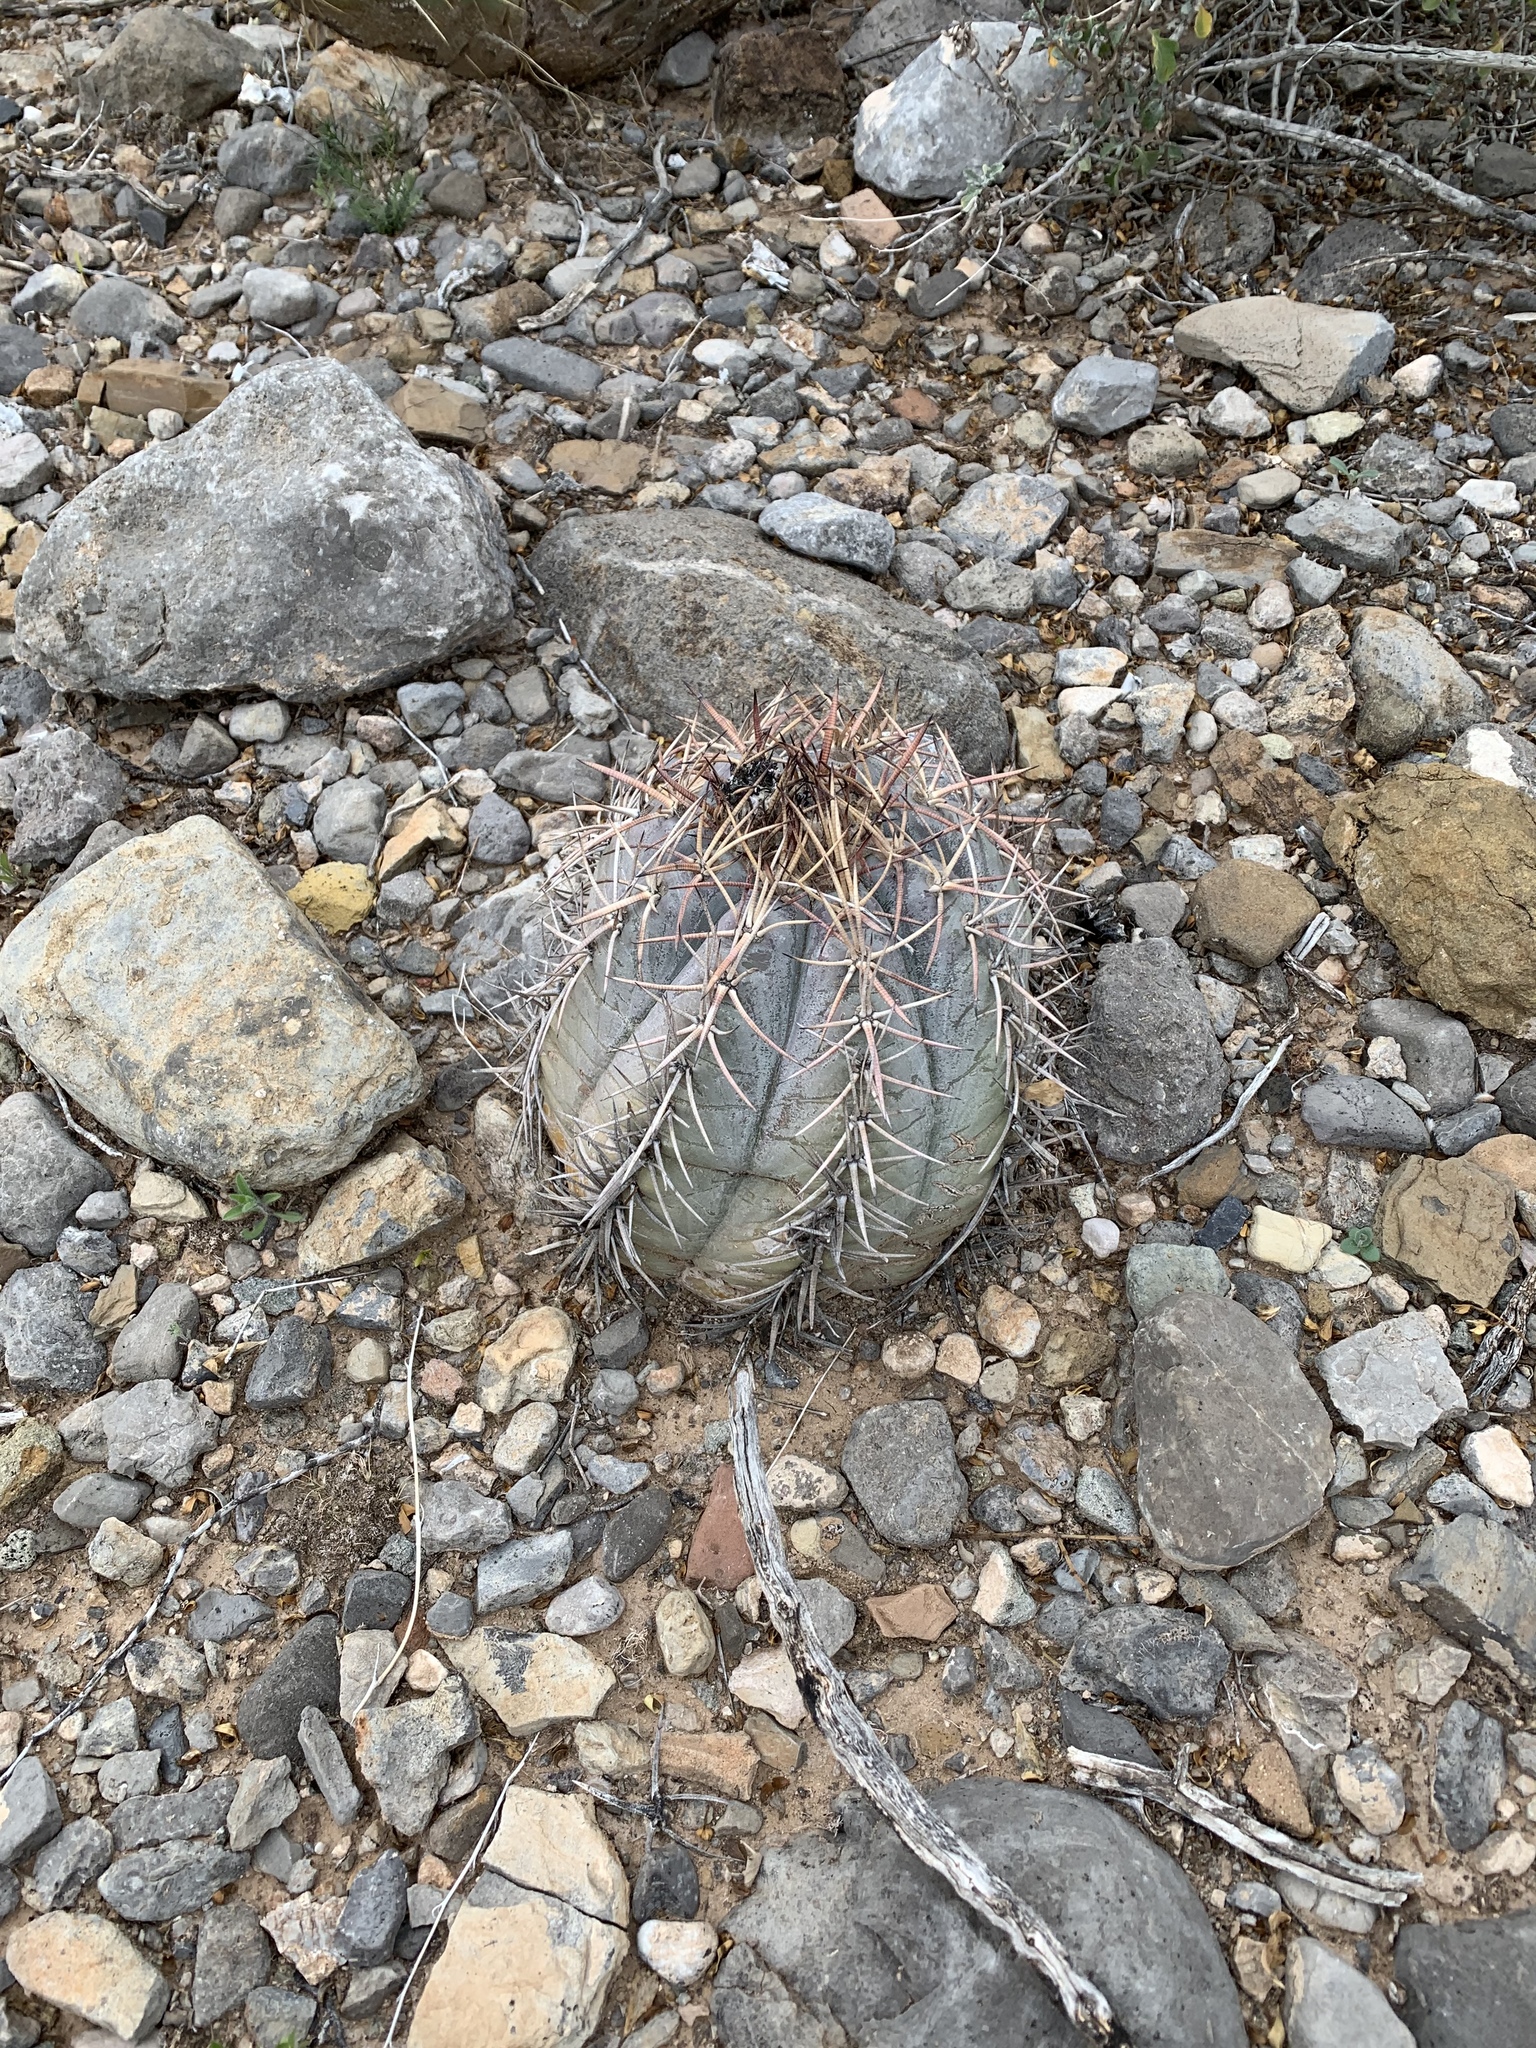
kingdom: Plantae
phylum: Tracheophyta
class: Magnoliopsida
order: Caryophyllales
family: Cactaceae
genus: Echinocactus
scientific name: Echinocactus horizonthalonius
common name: Devilshead
